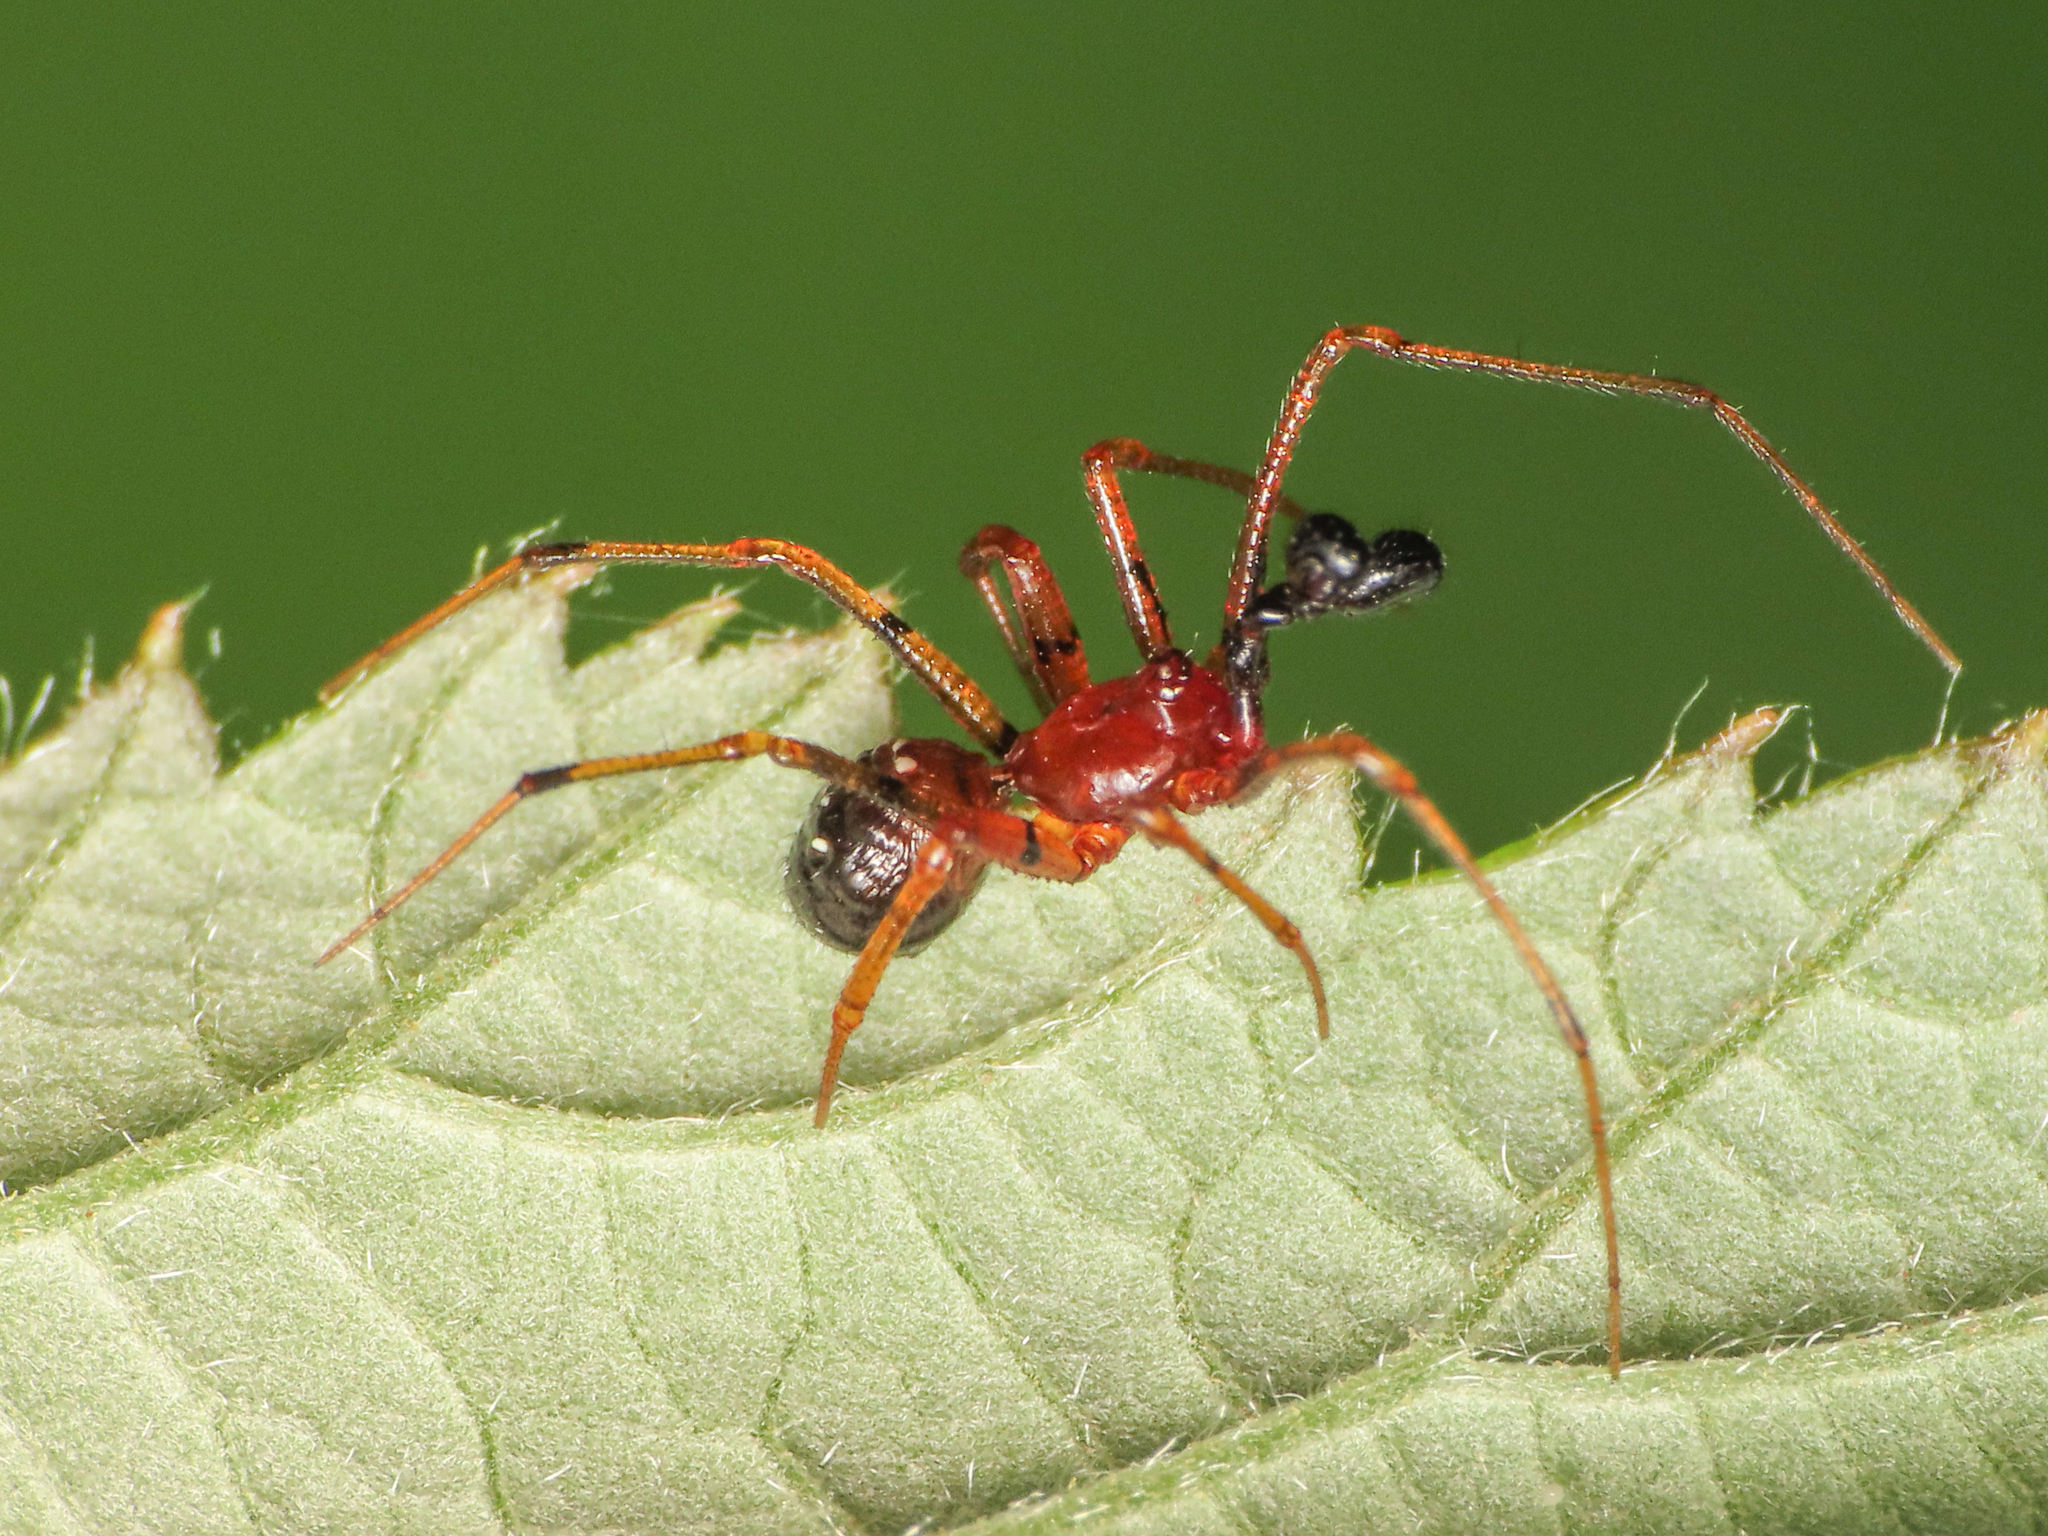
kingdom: Animalia
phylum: Arthropoda
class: Arachnida
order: Araneae
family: Theridiidae
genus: Neottiura
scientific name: Neottiura herbigrada
